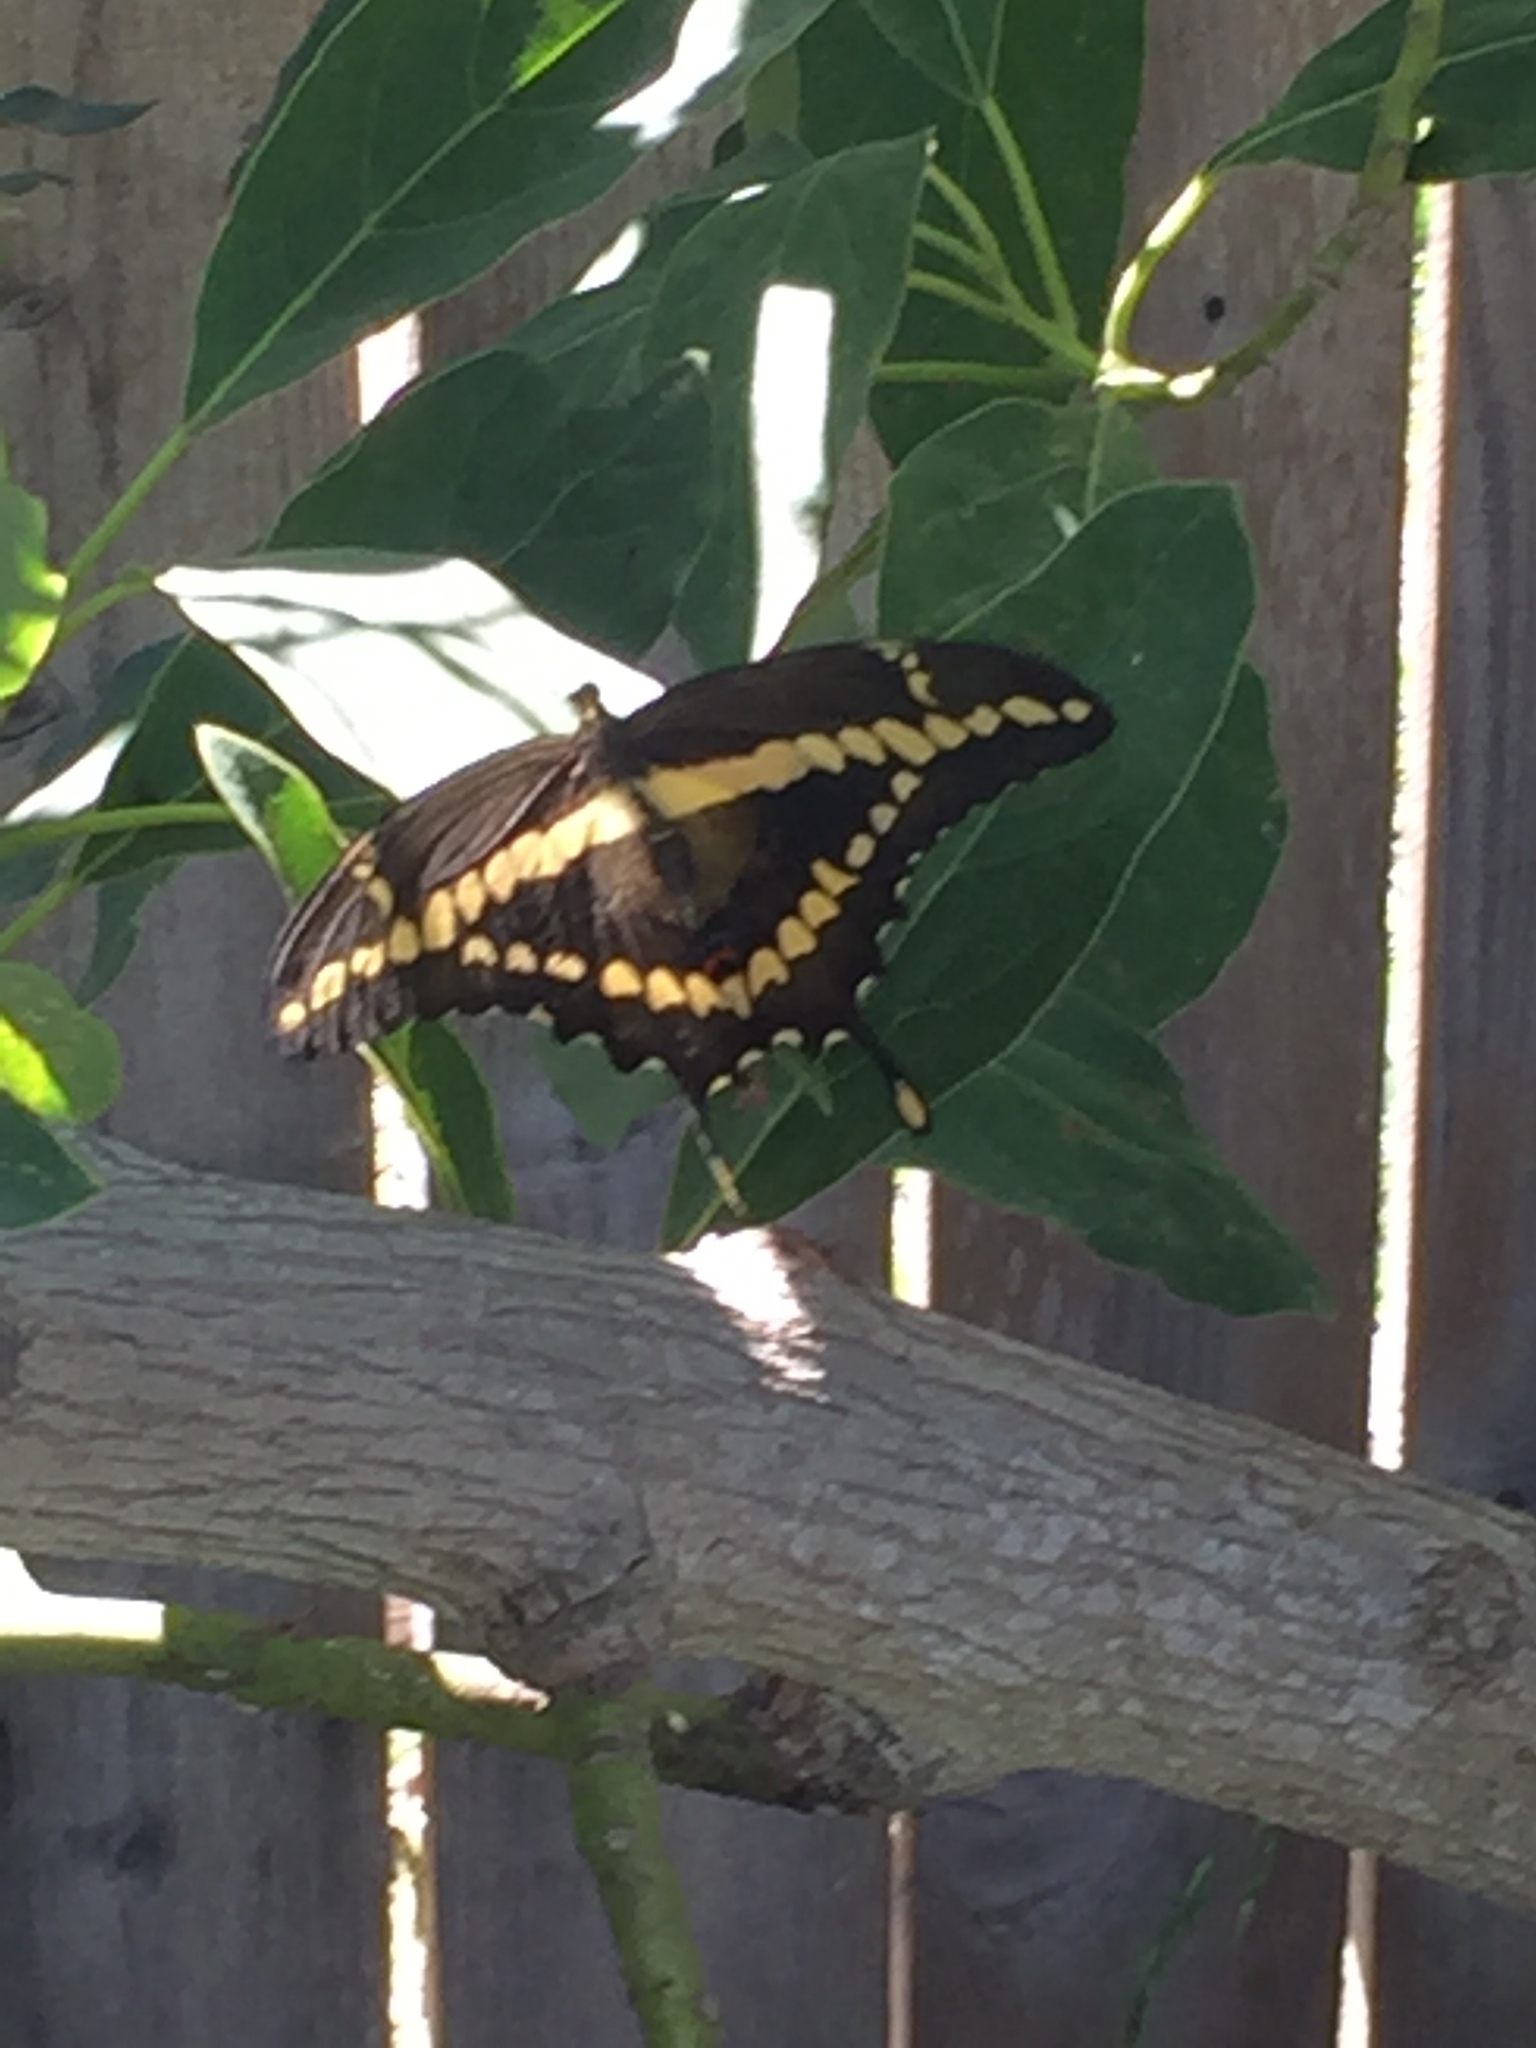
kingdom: Animalia
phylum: Arthropoda
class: Insecta
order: Lepidoptera
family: Papilionidae
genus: Papilio
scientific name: Papilio rumiko
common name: Western giant swallowtail
